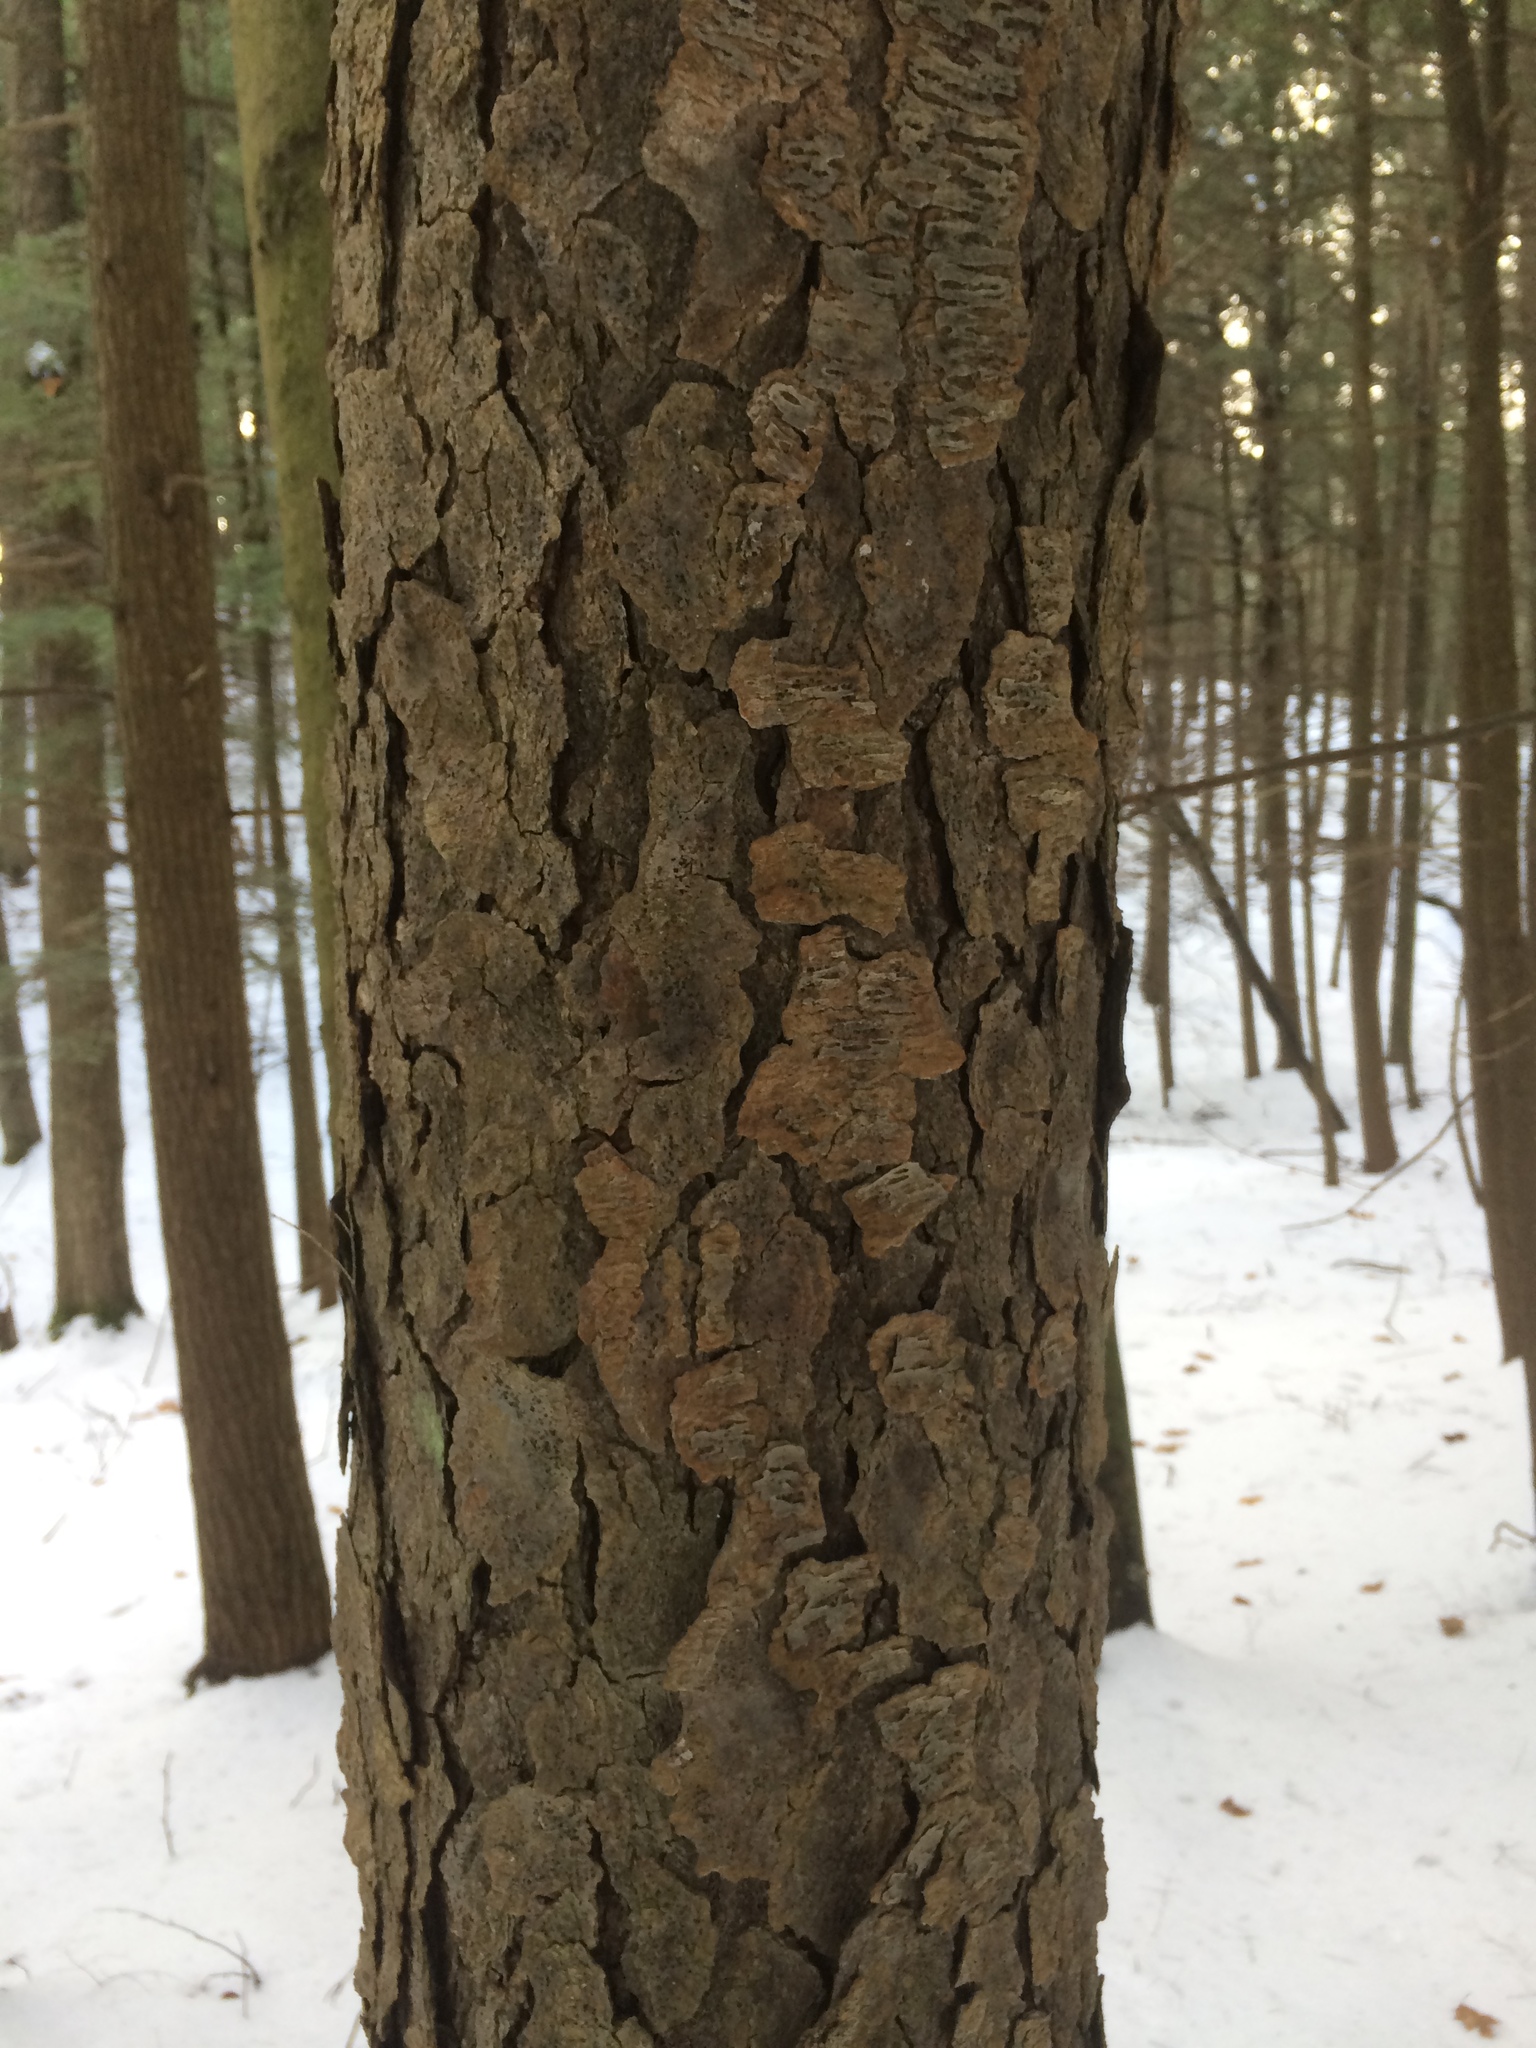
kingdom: Plantae
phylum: Tracheophyta
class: Magnoliopsida
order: Rosales
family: Rosaceae
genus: Prunus
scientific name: Prunus serotina
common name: Black cherry
